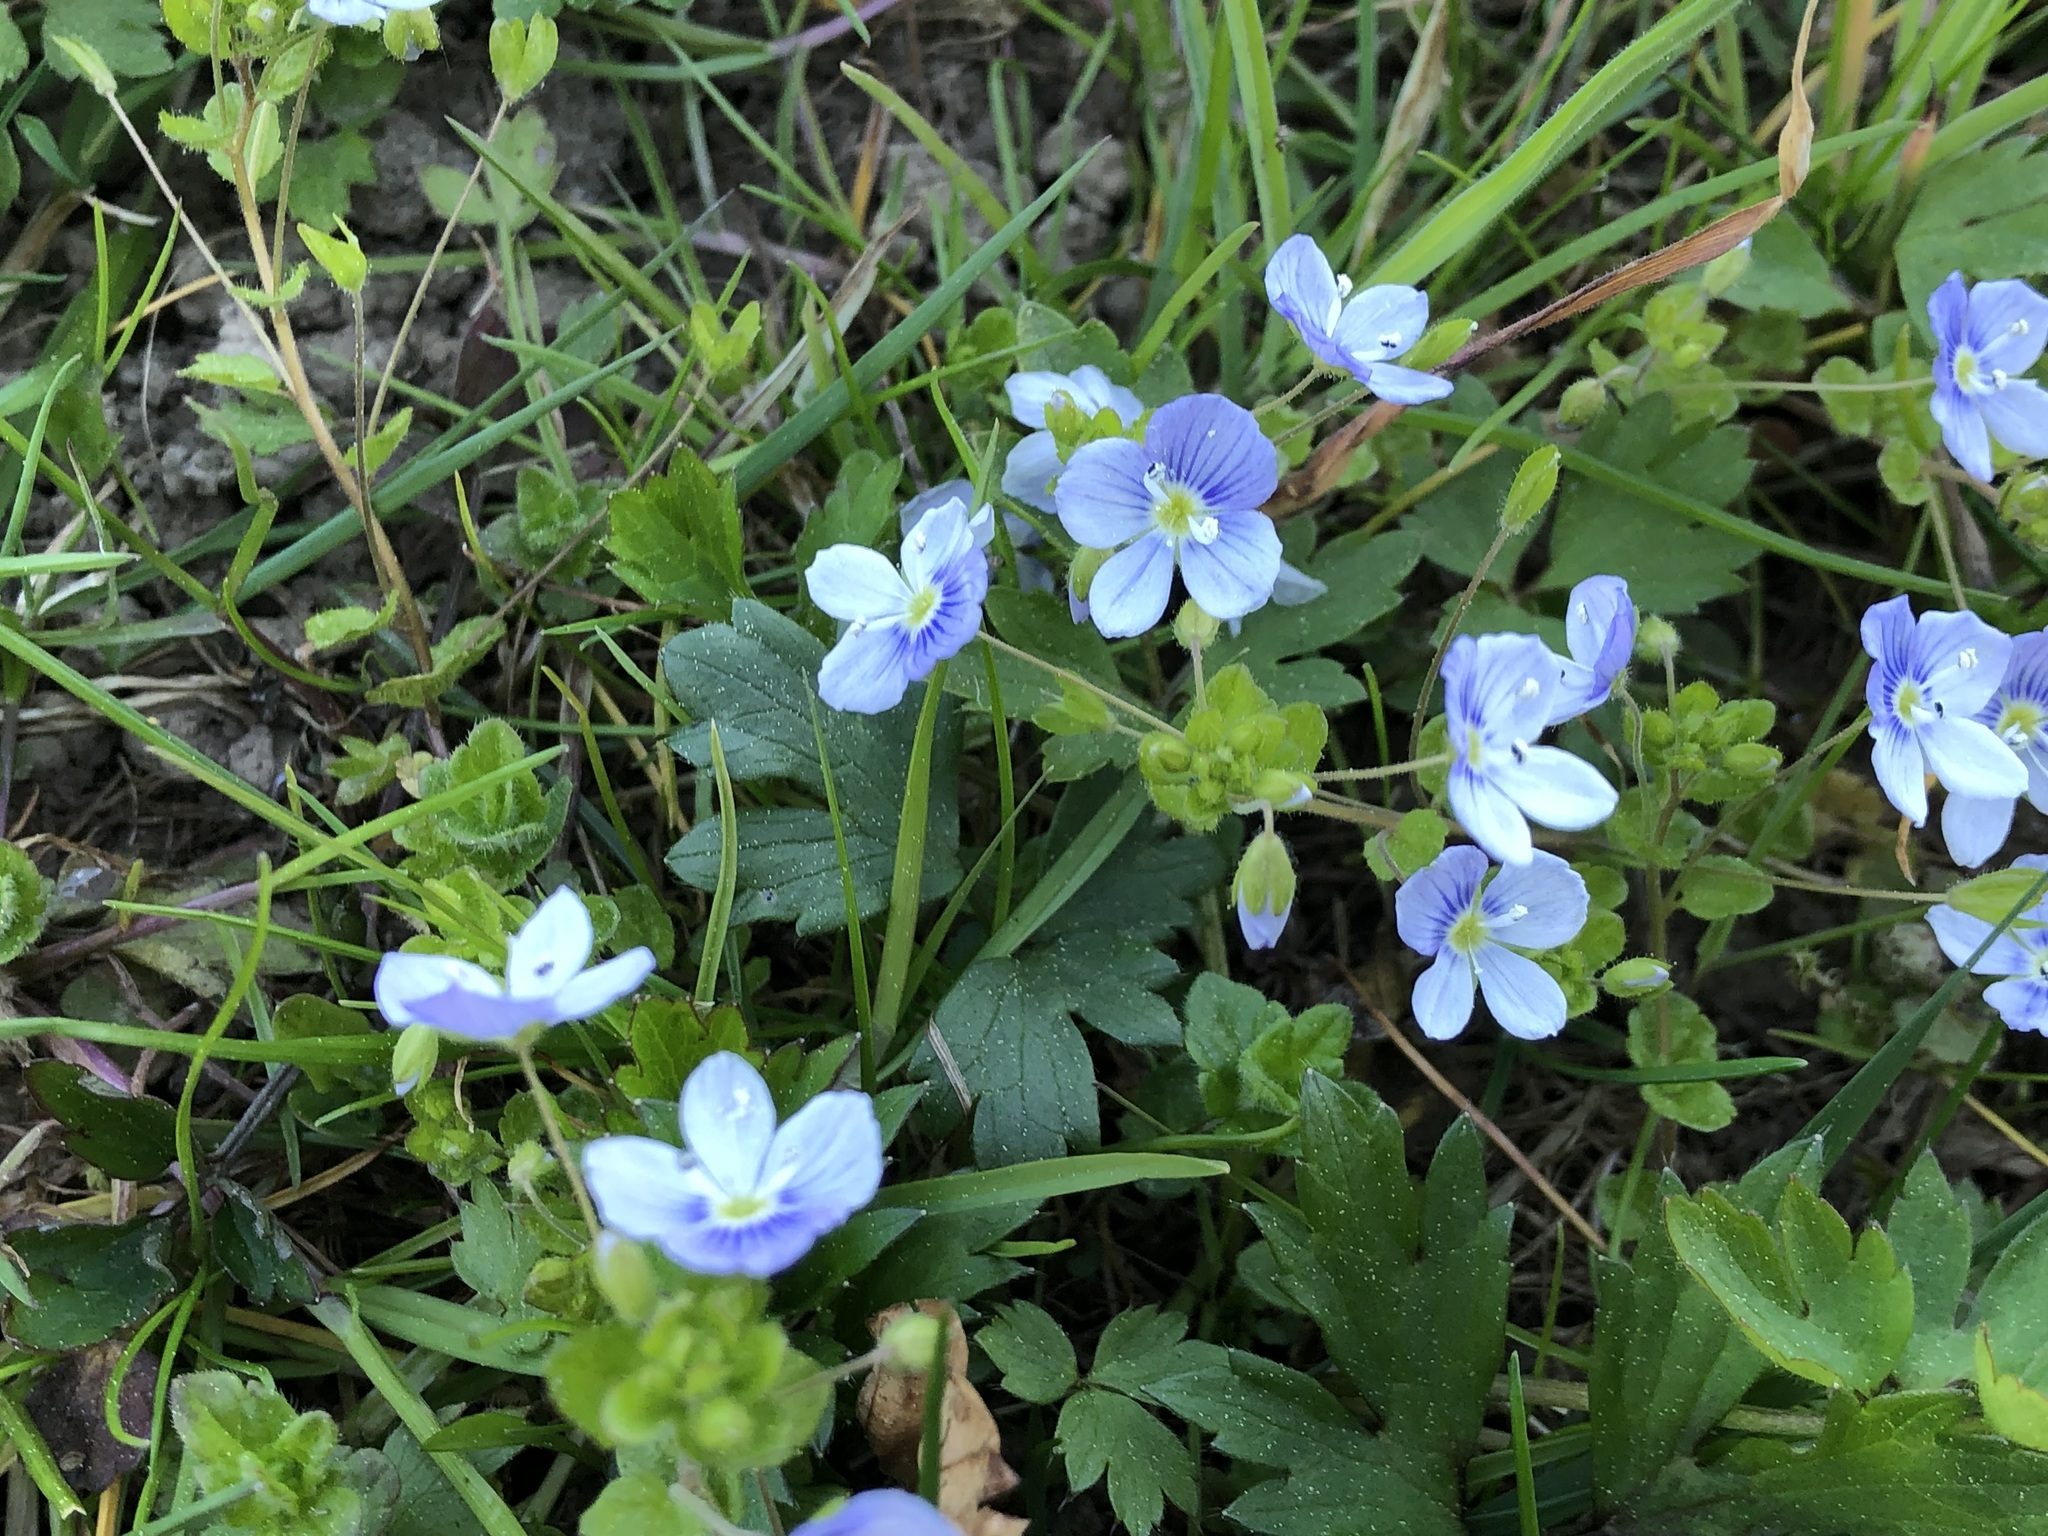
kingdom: Plantae
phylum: Tracheophyta
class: Magnoliopsida
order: Lamiales
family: Plantaginaceae
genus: Veronica
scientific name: Veronica filiformis
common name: Slender speedwell
